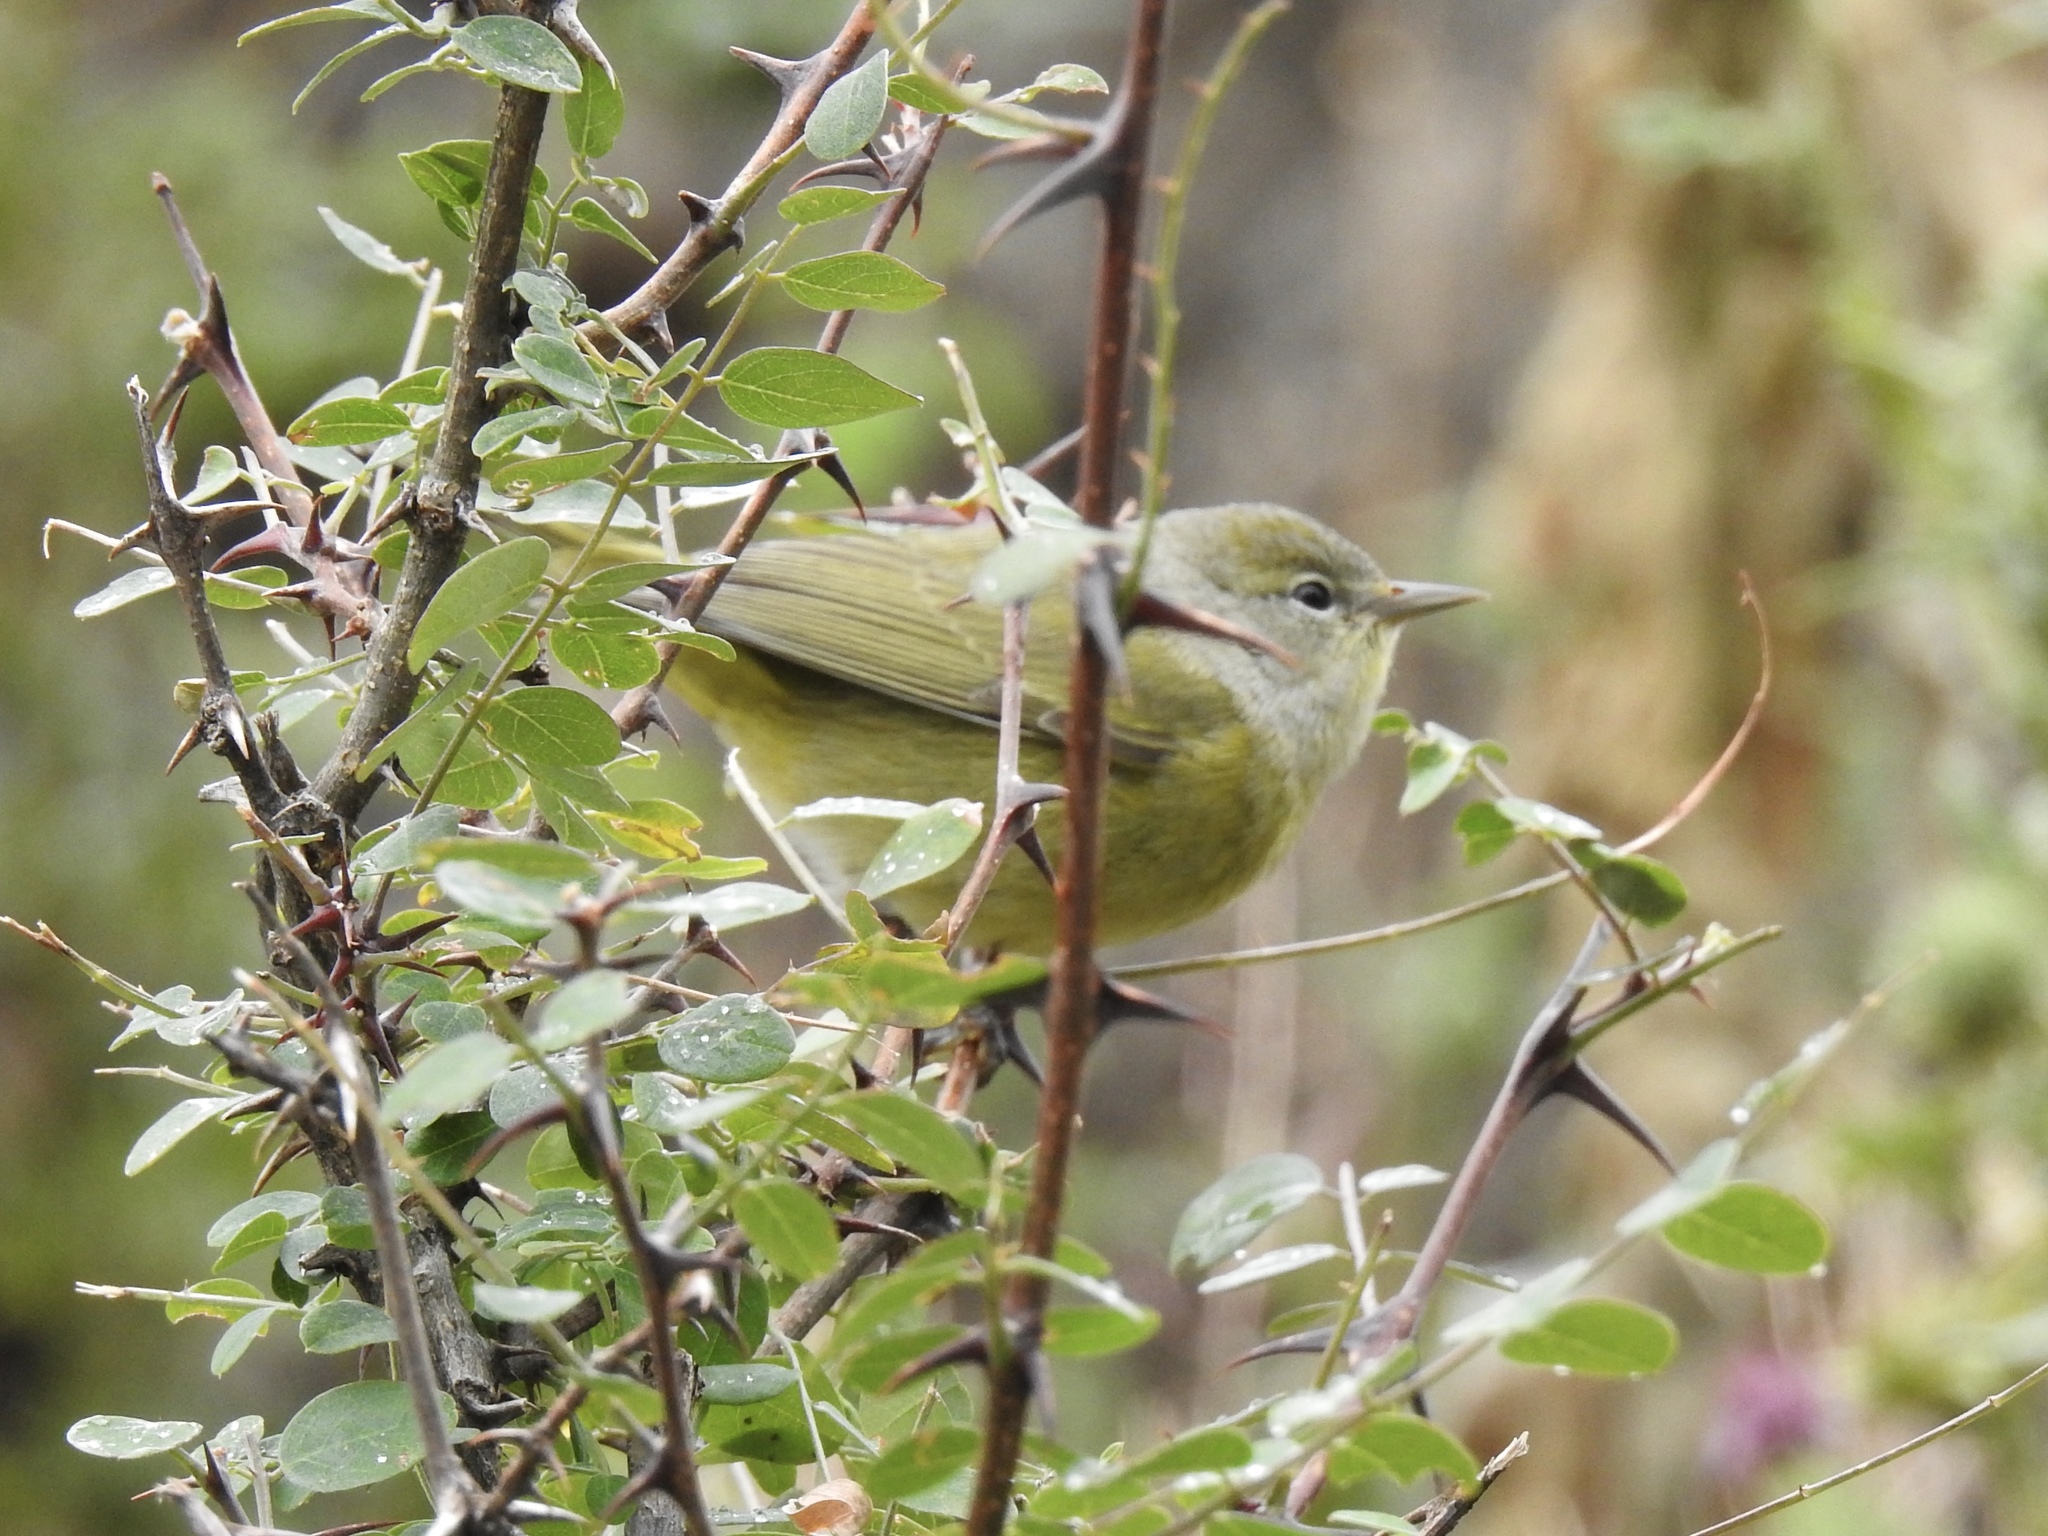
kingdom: Animalia
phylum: Chordata
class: Aves
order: Passeriformes
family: Parulidae
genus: Leiothlypis
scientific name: Leiothlypis celata
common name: Orange-crowned warbler
